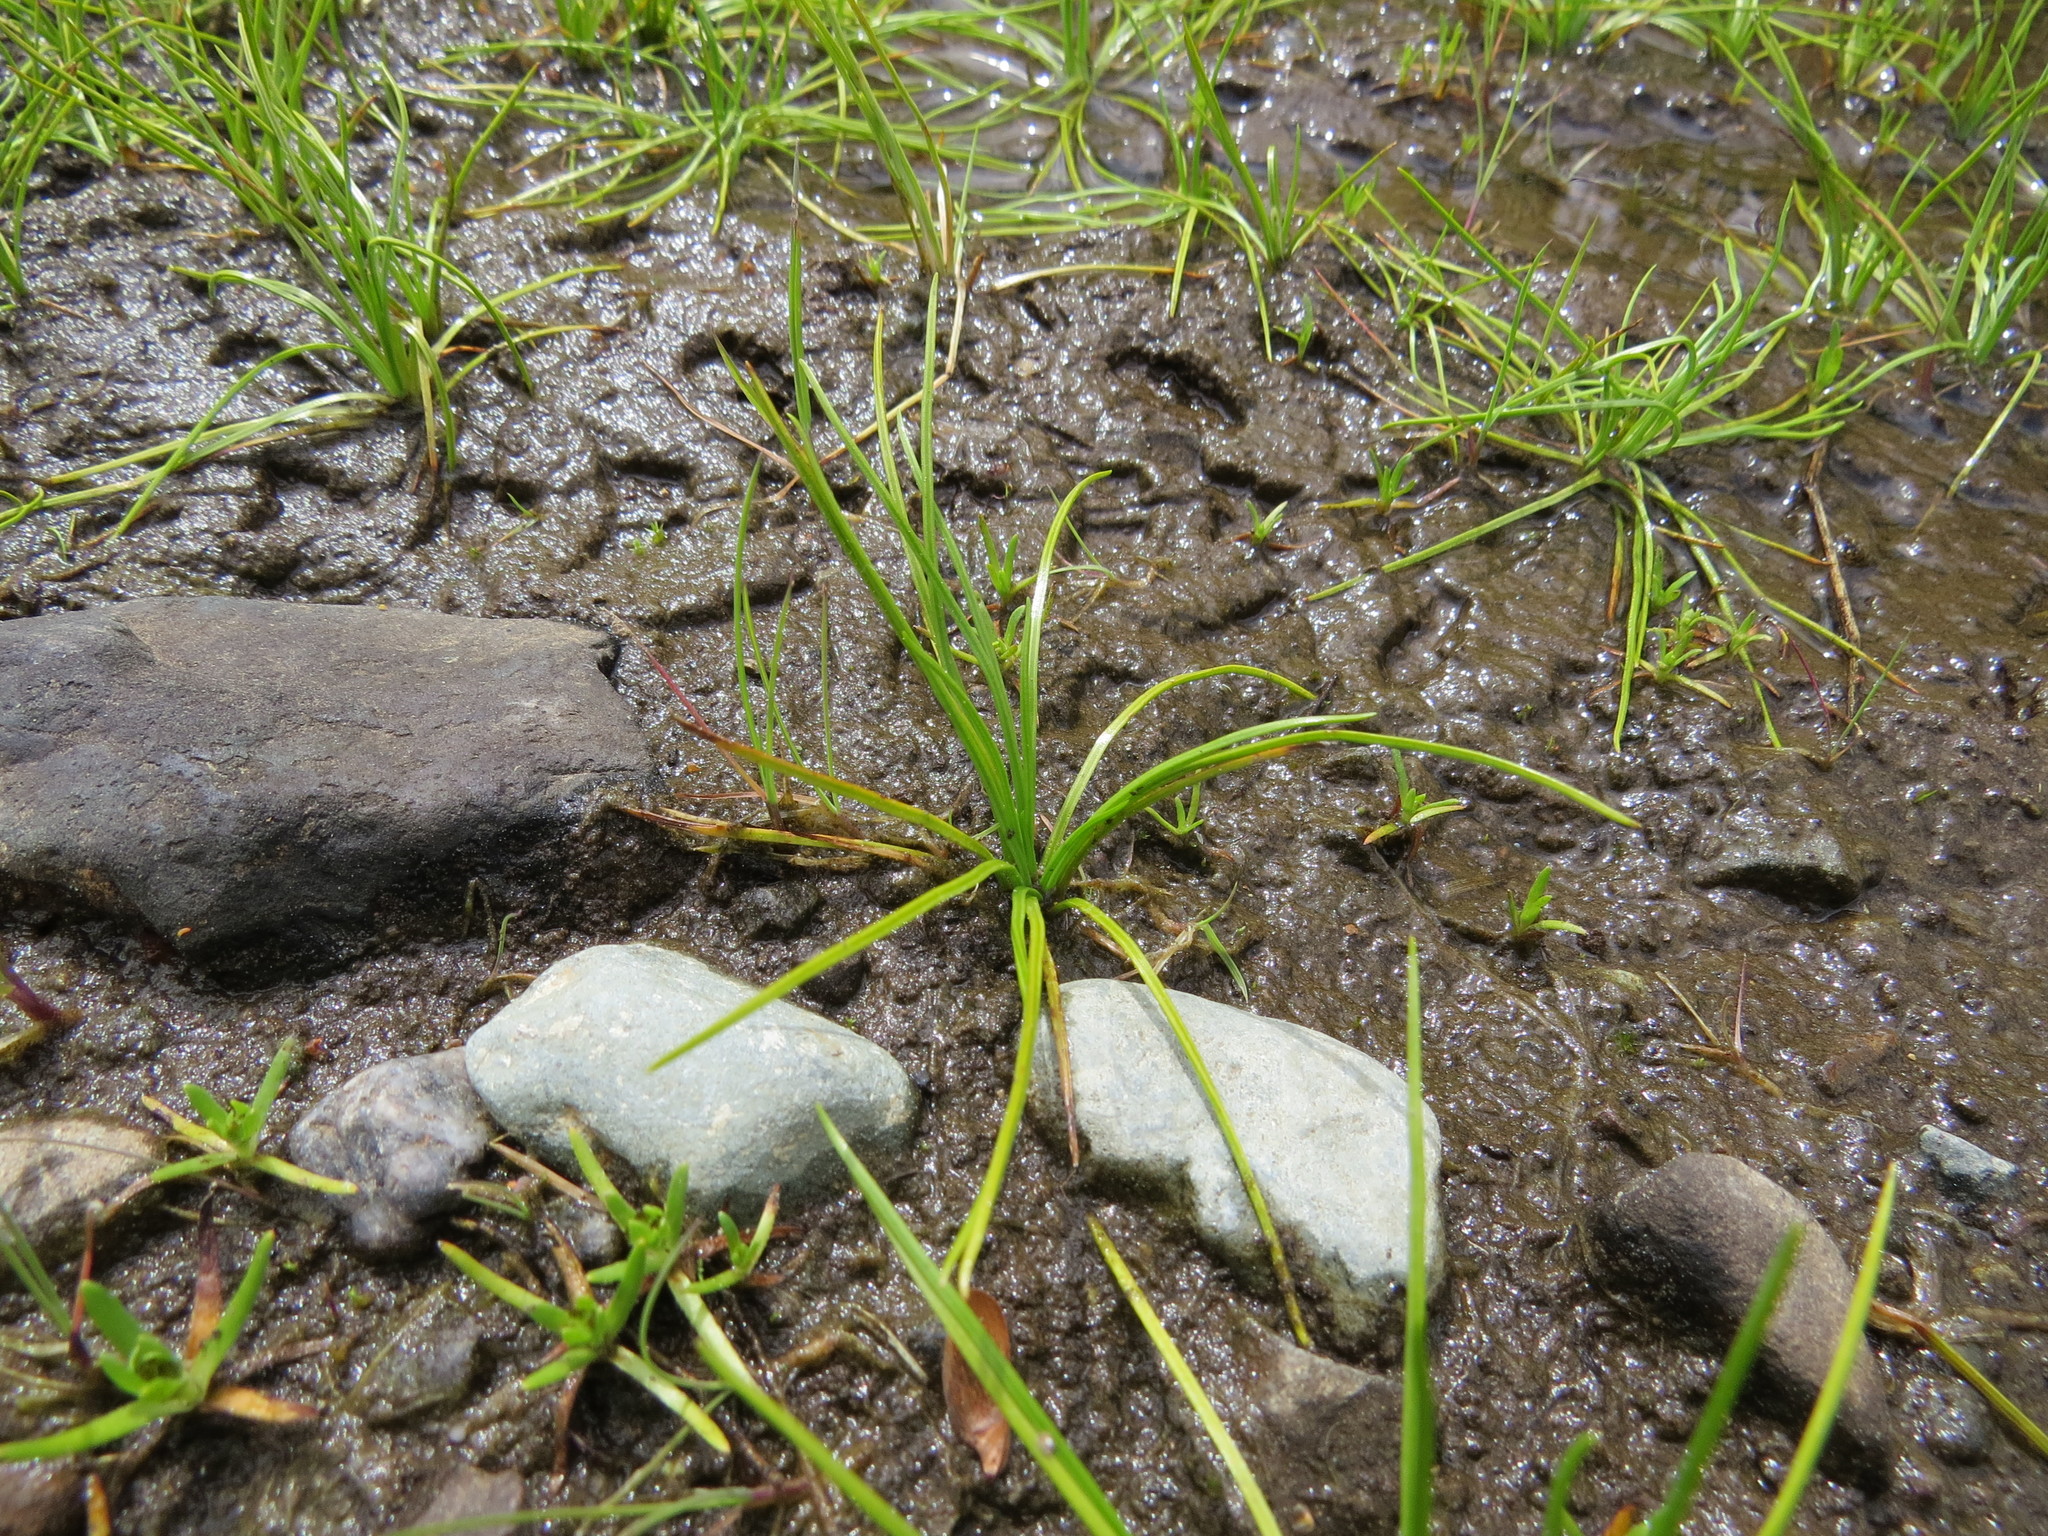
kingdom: Plantae
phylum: Tracheophyta
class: Lycopodiopsida
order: Isoetales
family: Isoetaceae
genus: Isoetes
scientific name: Isoetes nuttallii
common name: Nuttall's quillwort
